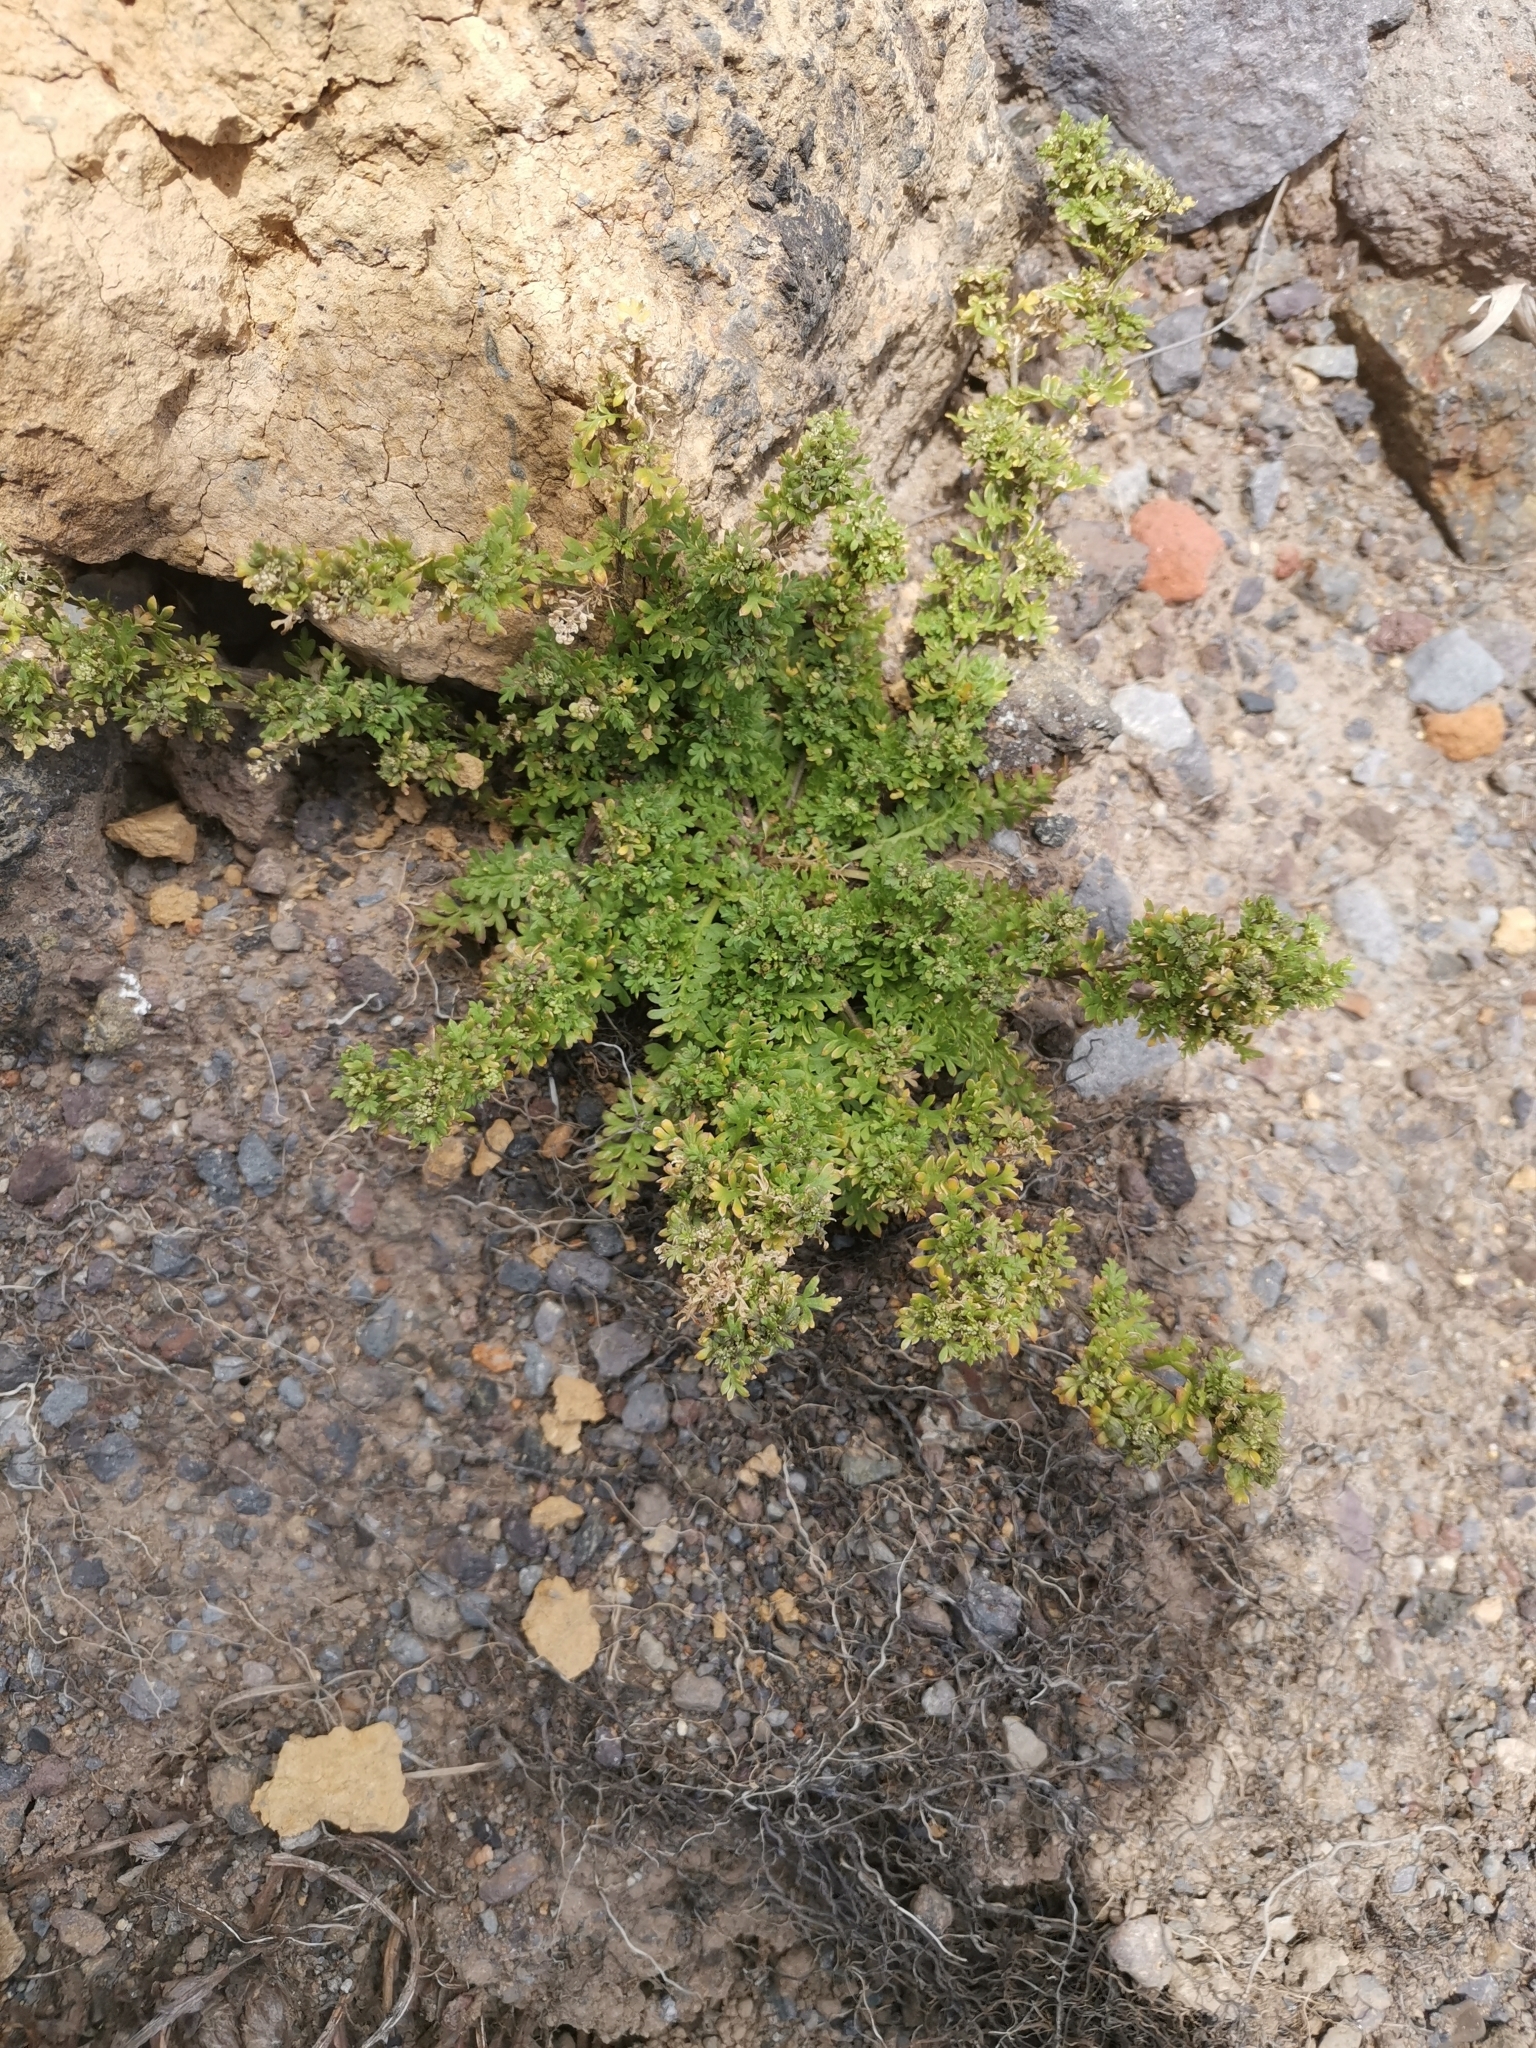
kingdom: Plantae
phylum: Tracheophyta
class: Magnoliopsida
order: Brassicales
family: Brassicaceae
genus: Lepidium
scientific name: Lepidium didymum
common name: Lesser swinecress
